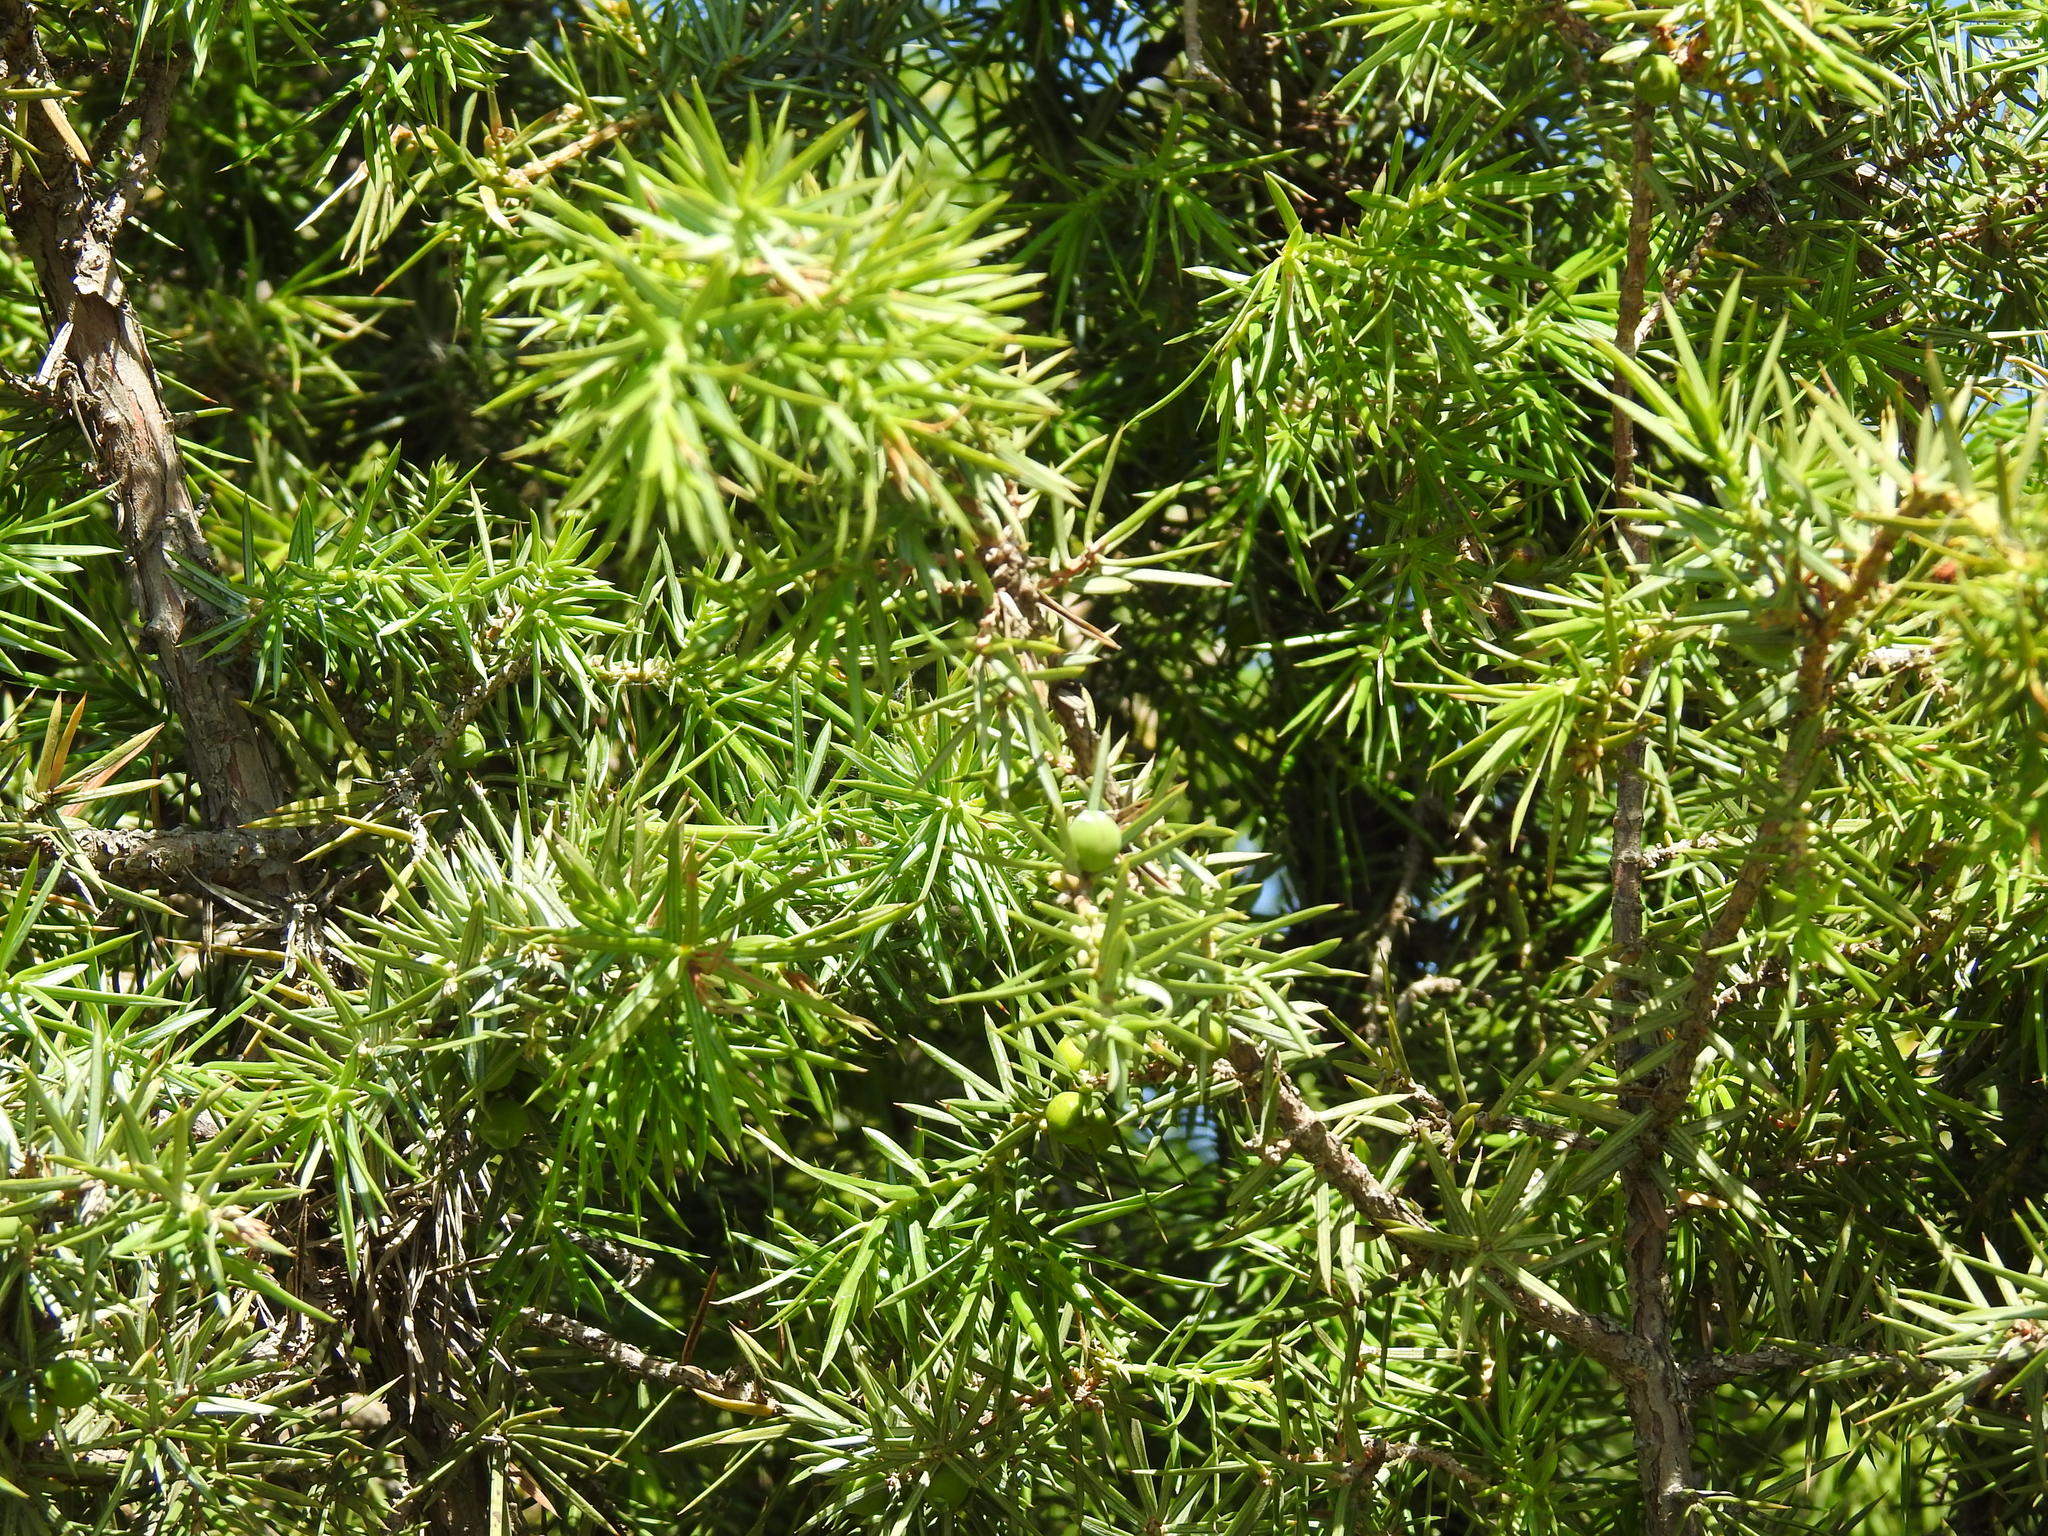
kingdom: Plantae
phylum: Tracheophyta
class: Pinopsida
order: Pinales
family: Cupressaceae
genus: Juniperus
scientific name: Juniperus communis
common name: Common juniper
